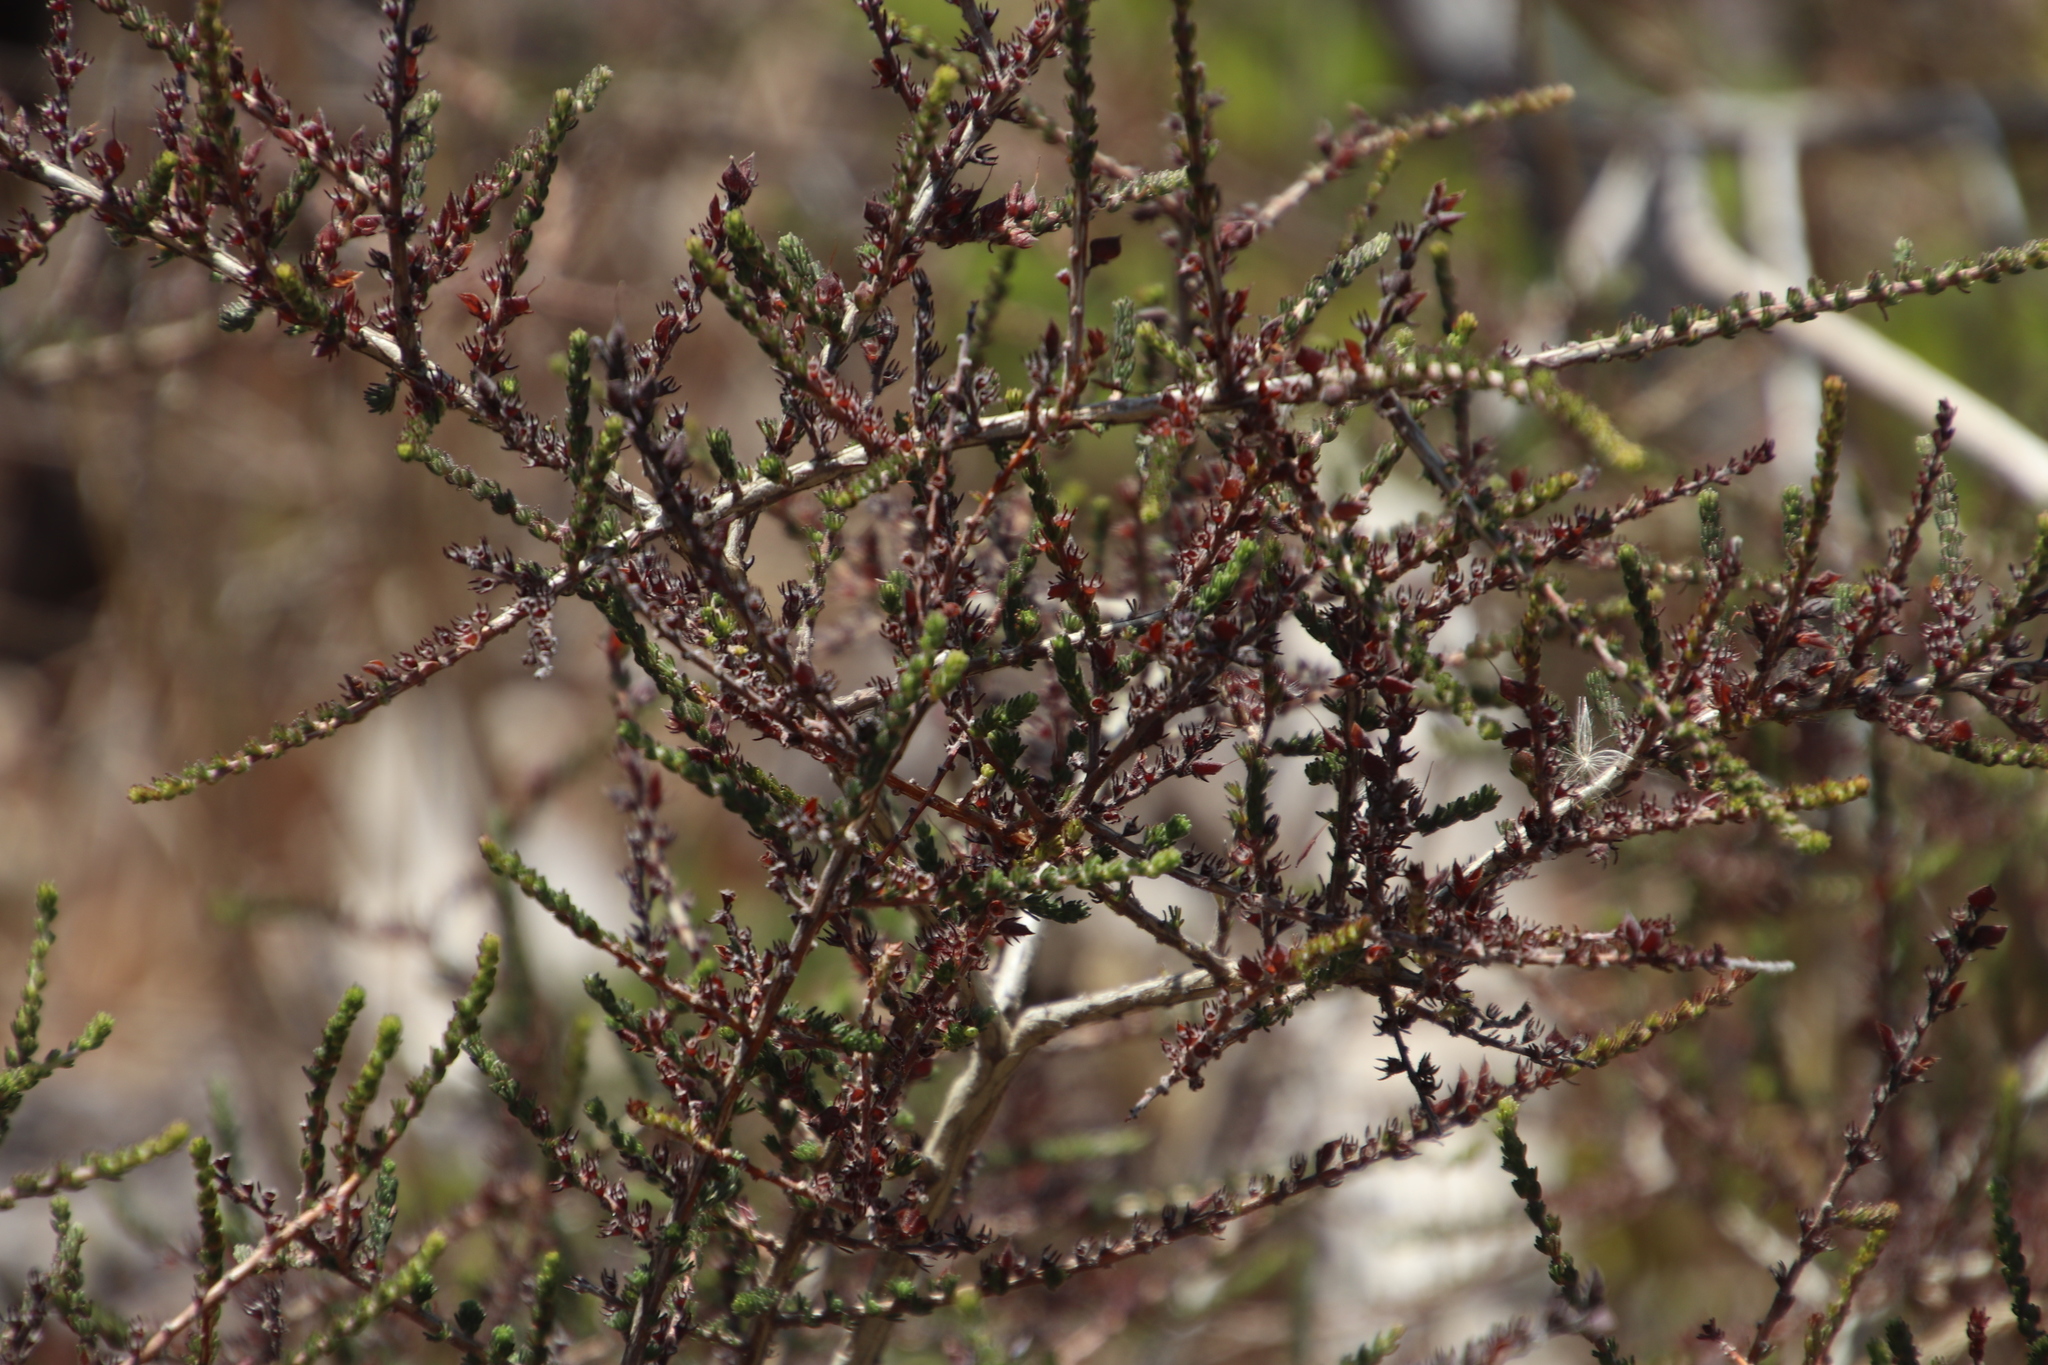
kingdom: Plantae
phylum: Tracheophyta
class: Magnoliopsida
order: Fabales
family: Fabaceae
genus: Aspalathus
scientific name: Aspalathus hispida
